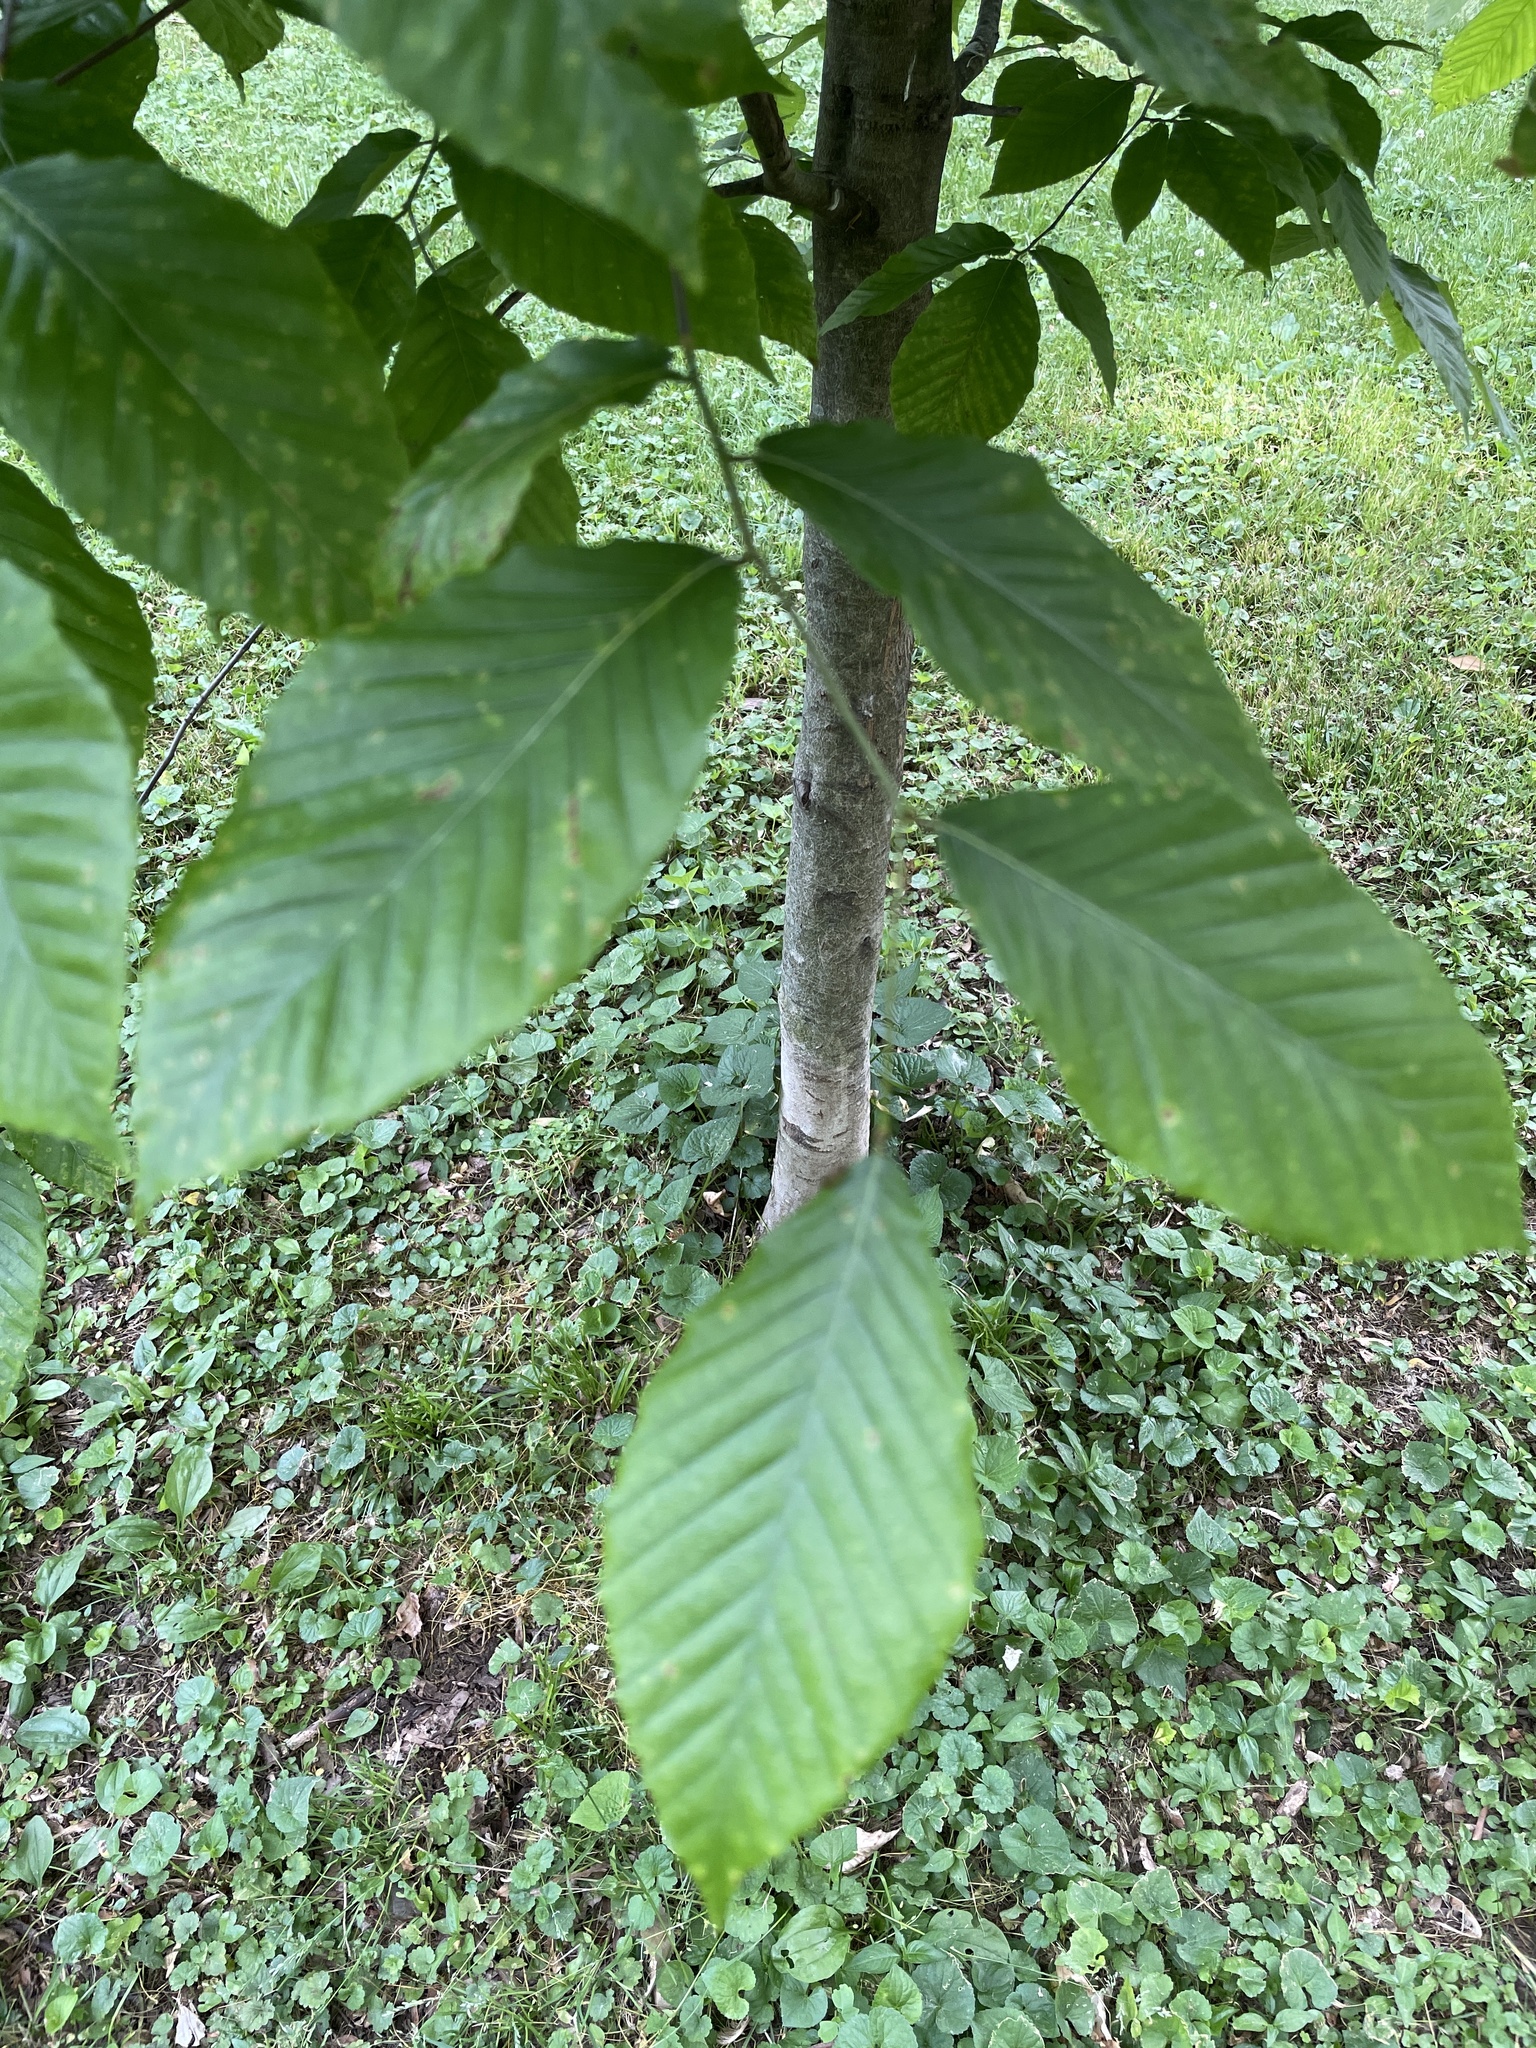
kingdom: Plantae
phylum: Tracheophyta
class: Magnoliopsida
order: Fagales
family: Fagaceae
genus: Fagus
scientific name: Fagus grandifolia
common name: American beech
